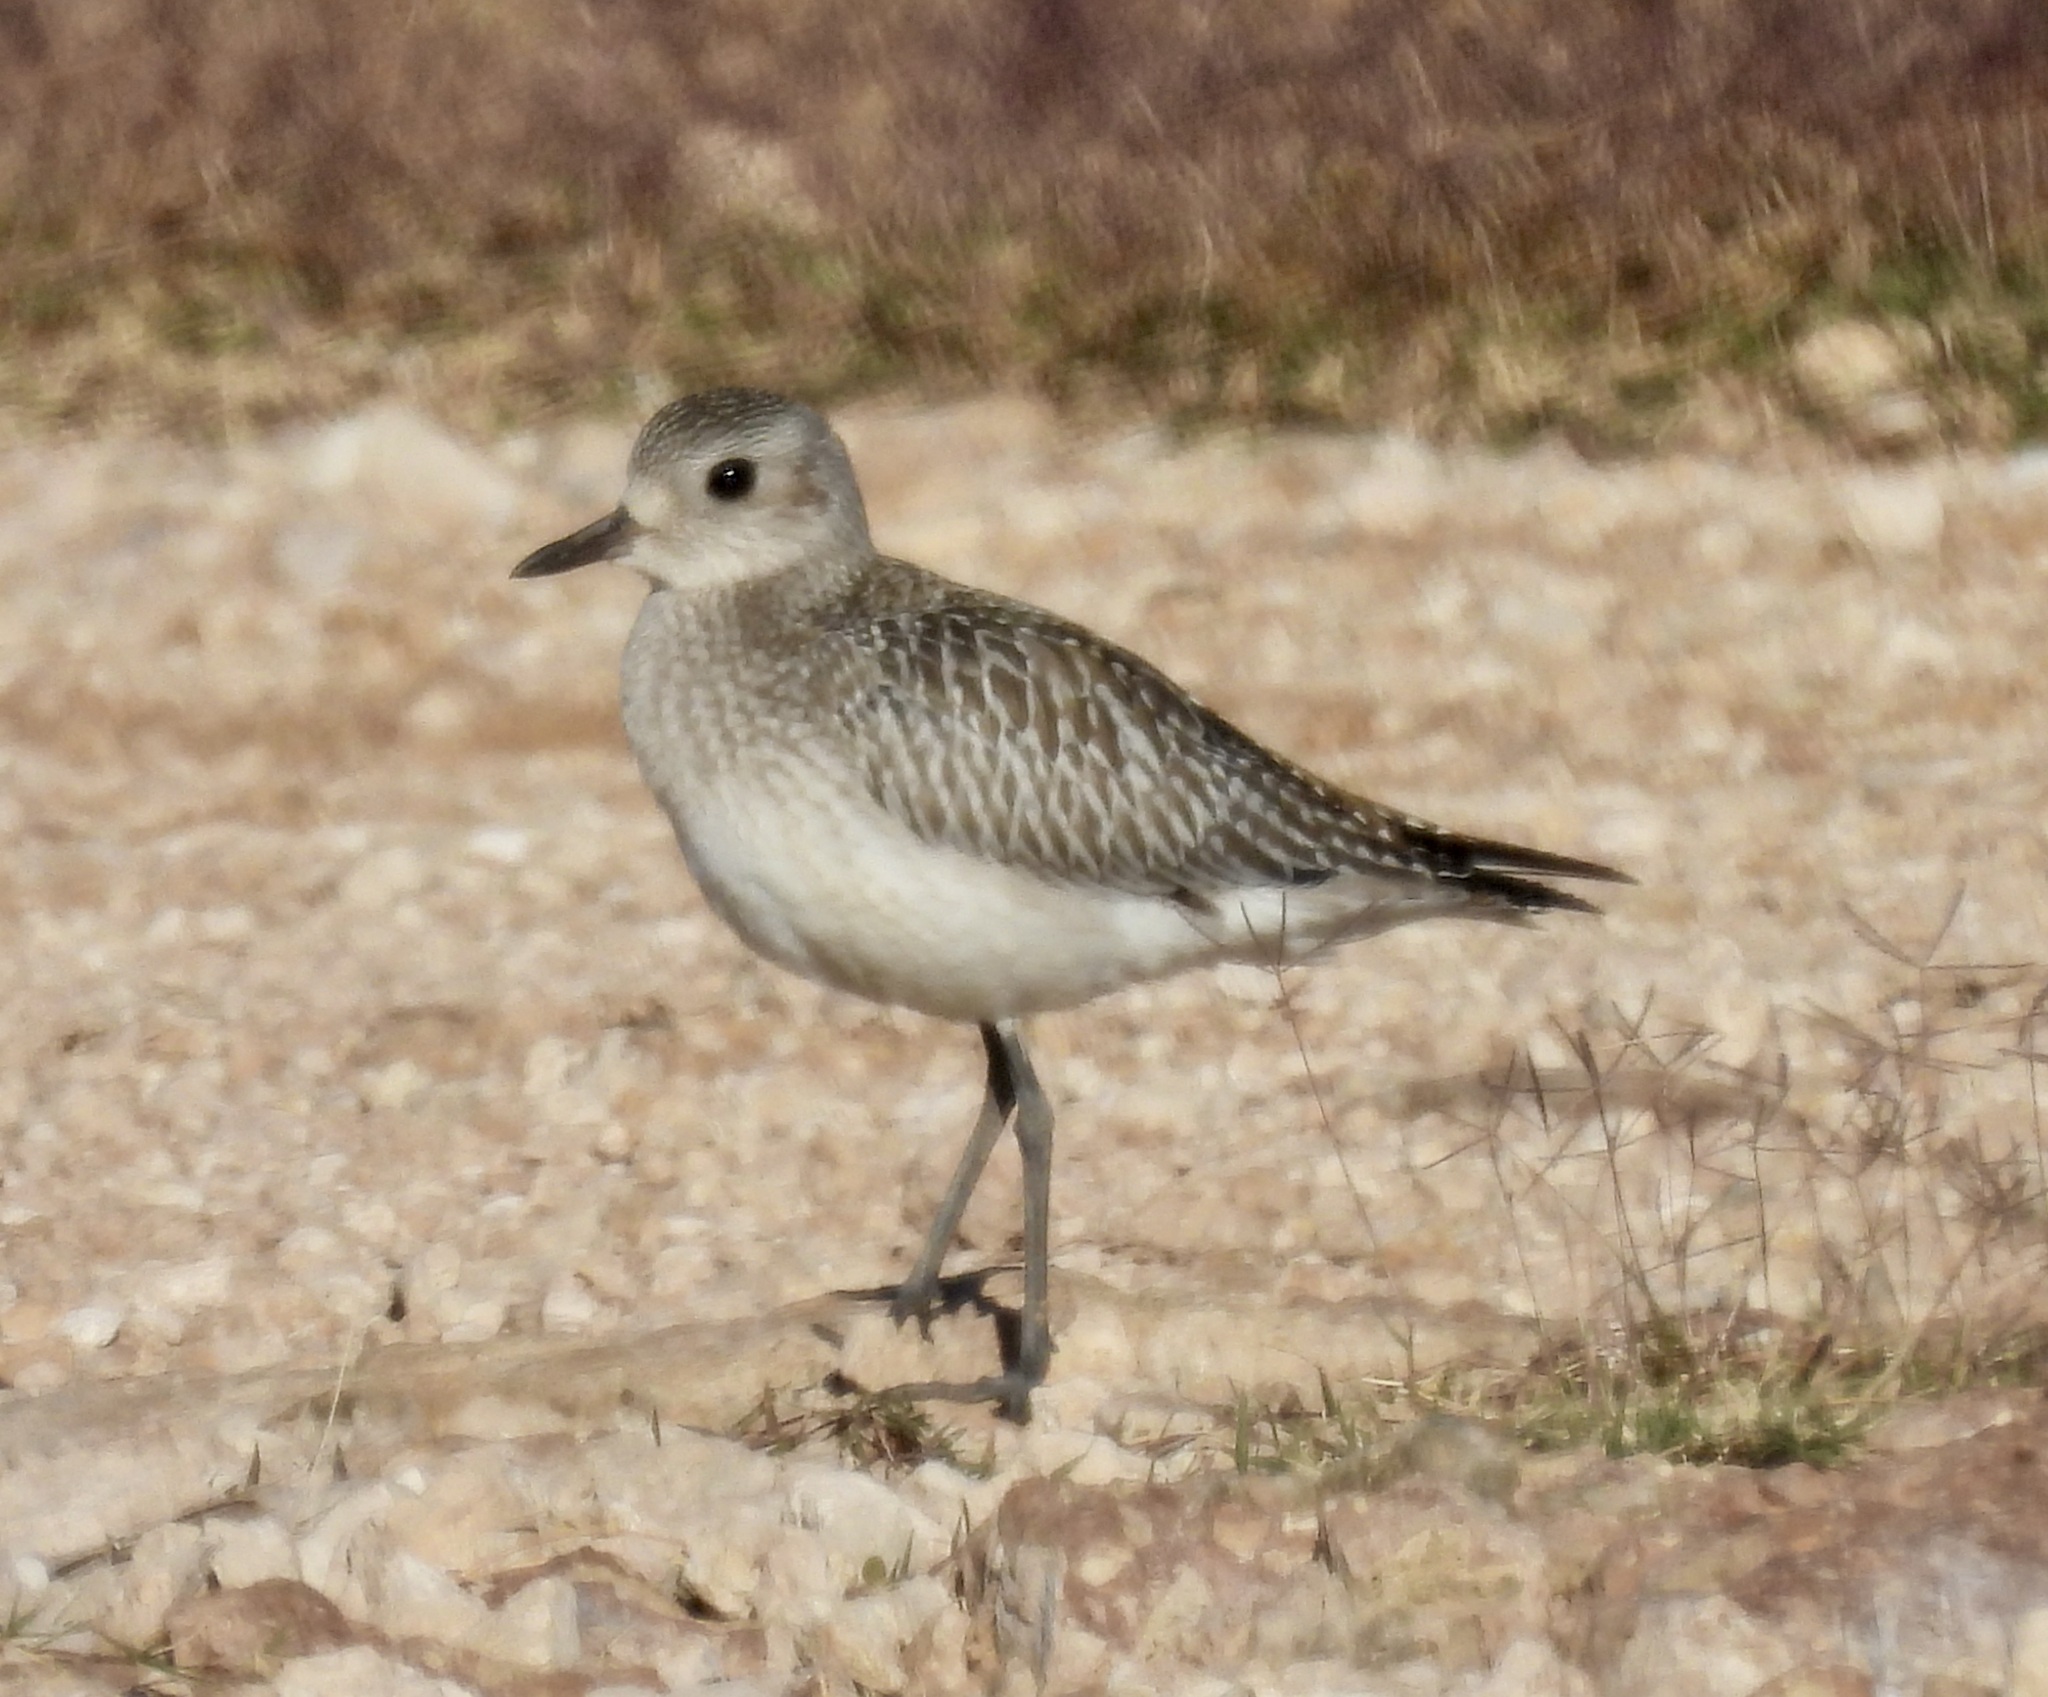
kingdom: Animalia
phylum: Chordata
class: Aves
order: Charadriiformes
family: Charadriidae
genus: Pluvialis
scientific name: Pluvialis squatarola
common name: Grey plover
